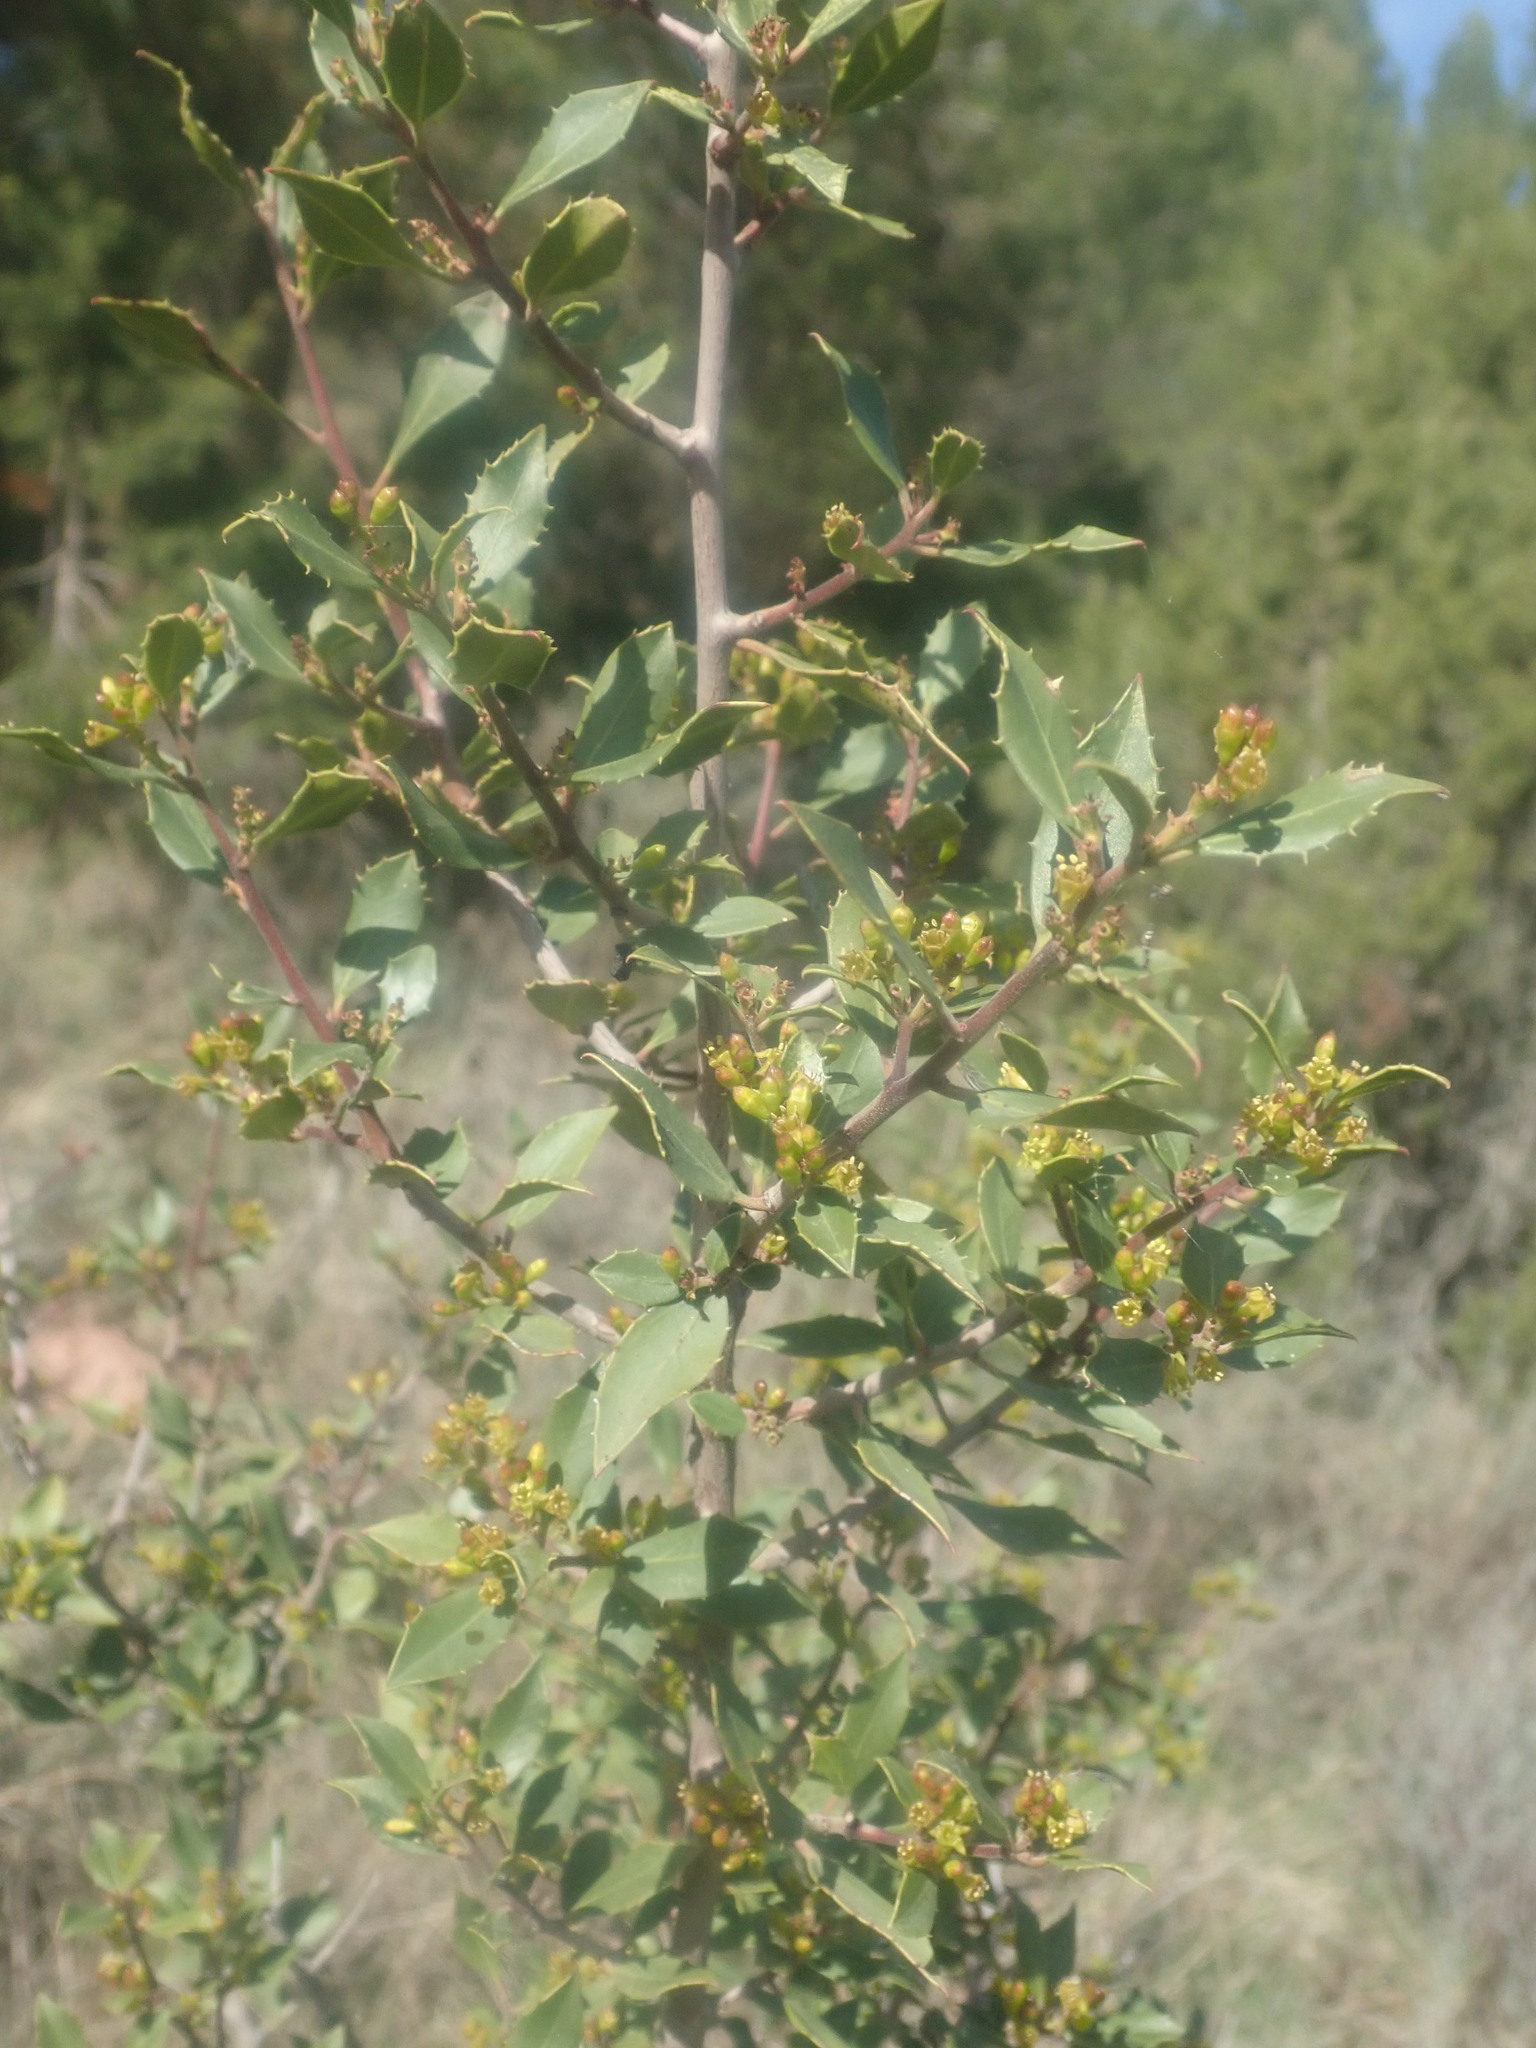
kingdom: Plantae
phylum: Tracheophyta
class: Magnoliopsida
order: Rosales
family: Rhamnaceae
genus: Rhamnus
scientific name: Rhamnus alaternus
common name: Mediterranean buckthorn
